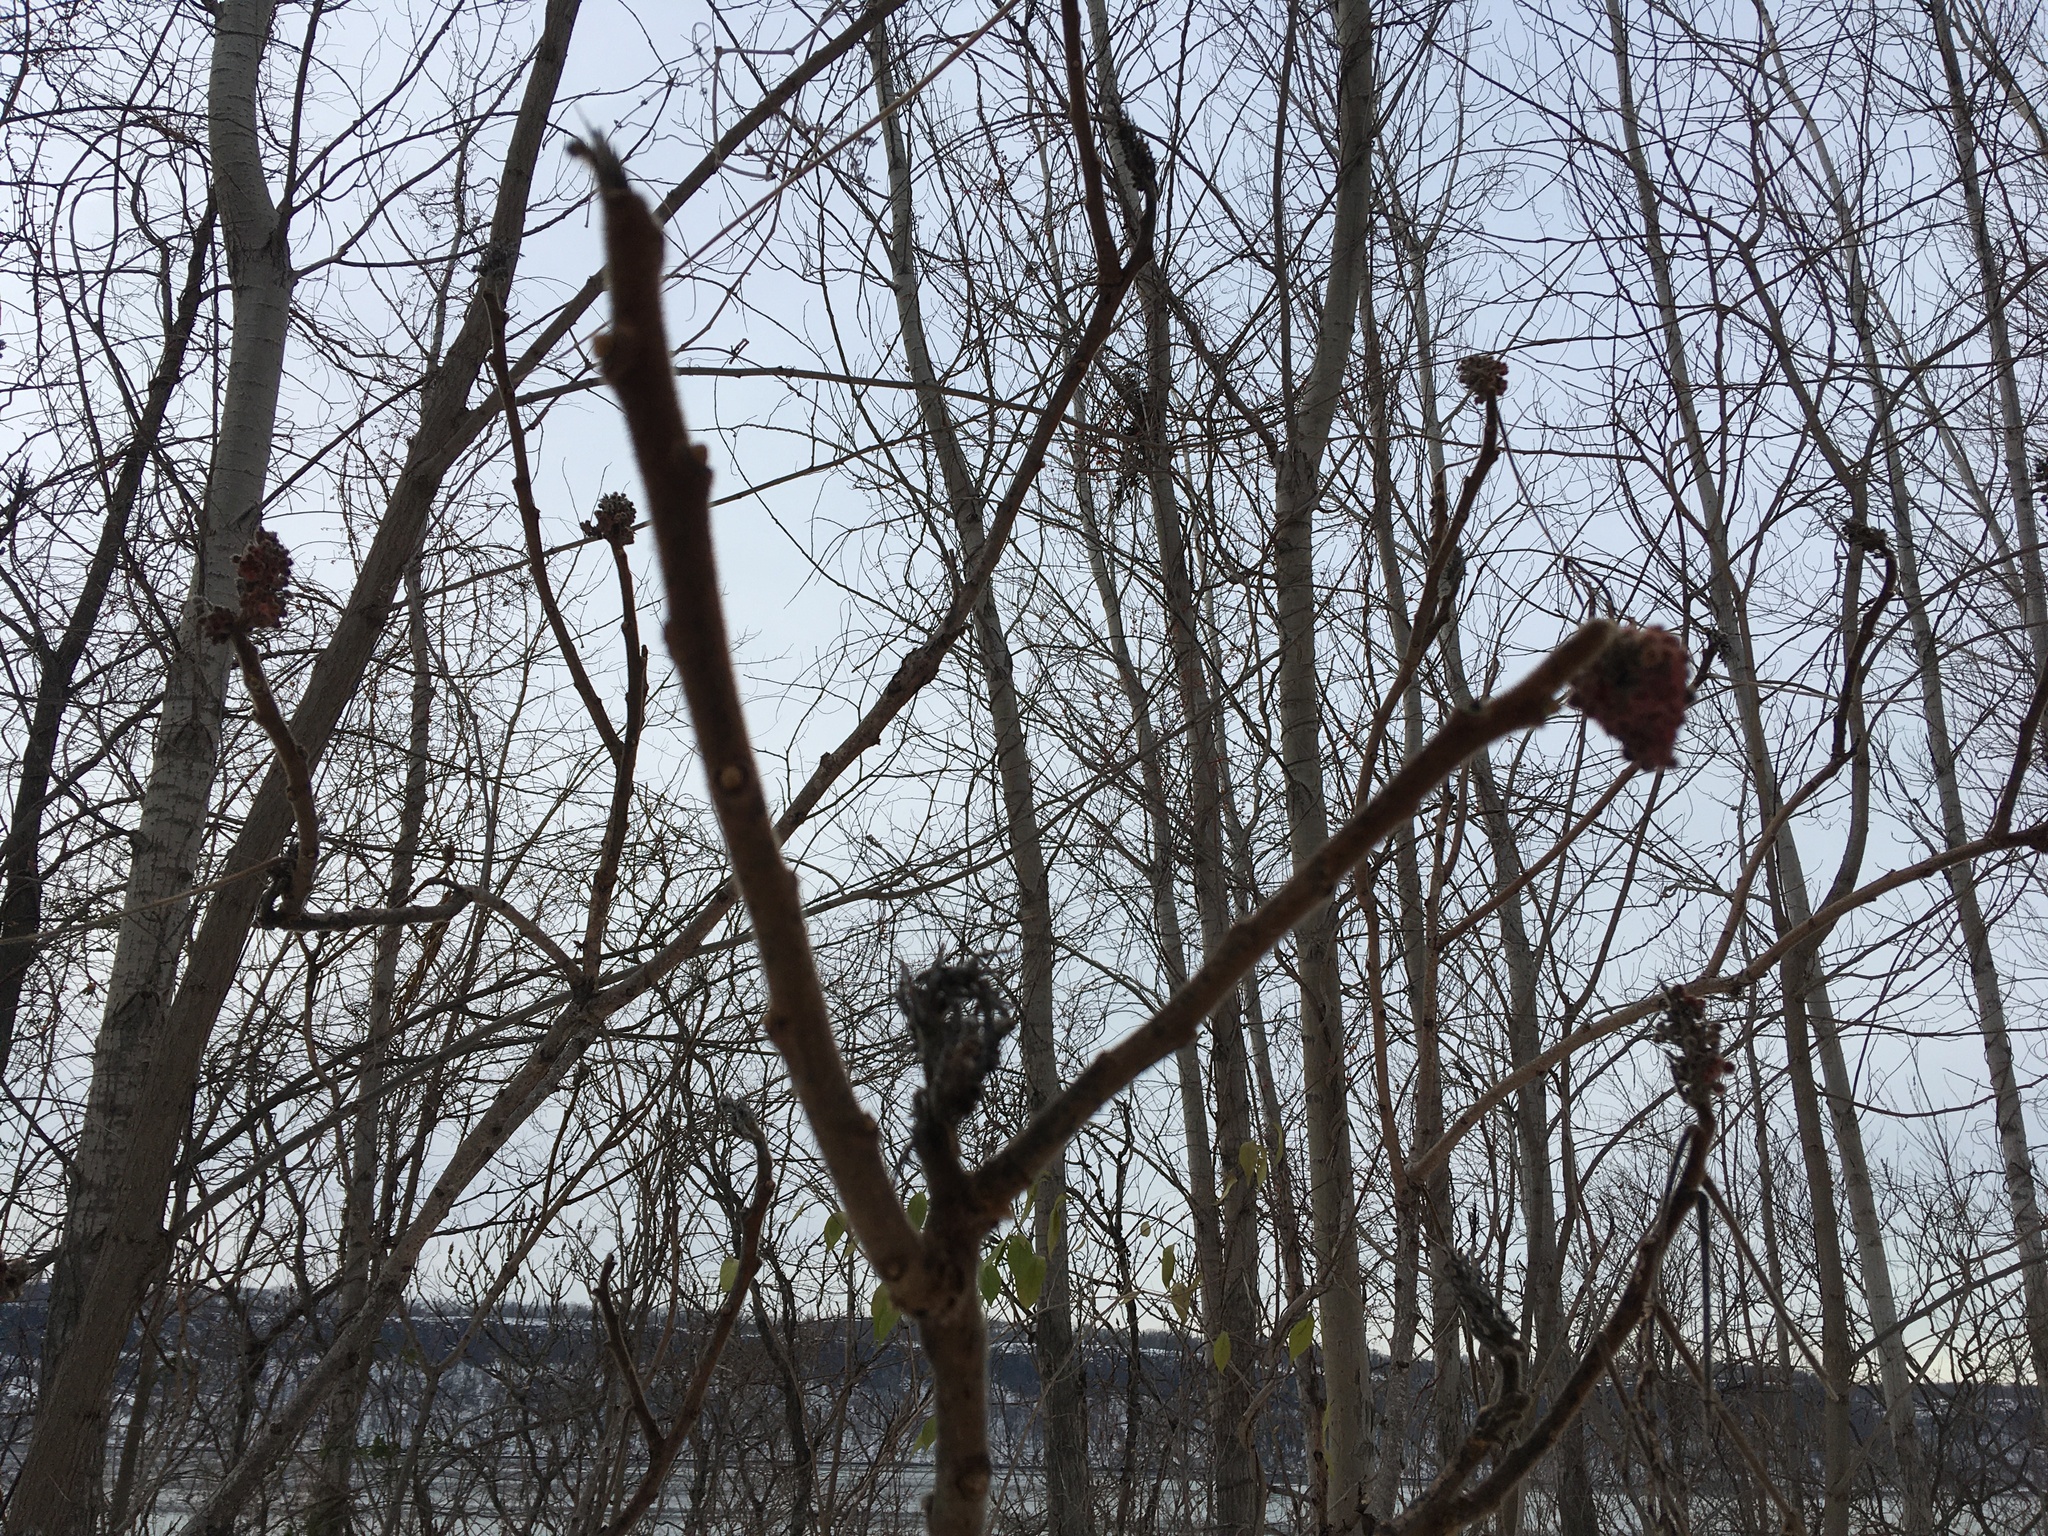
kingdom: Plantae
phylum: Tracheophyta
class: Magnoliopsida
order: Sapindales
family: Anacardiaceae
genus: Rhus
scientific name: Rhus typhina
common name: Staghorn sumac
